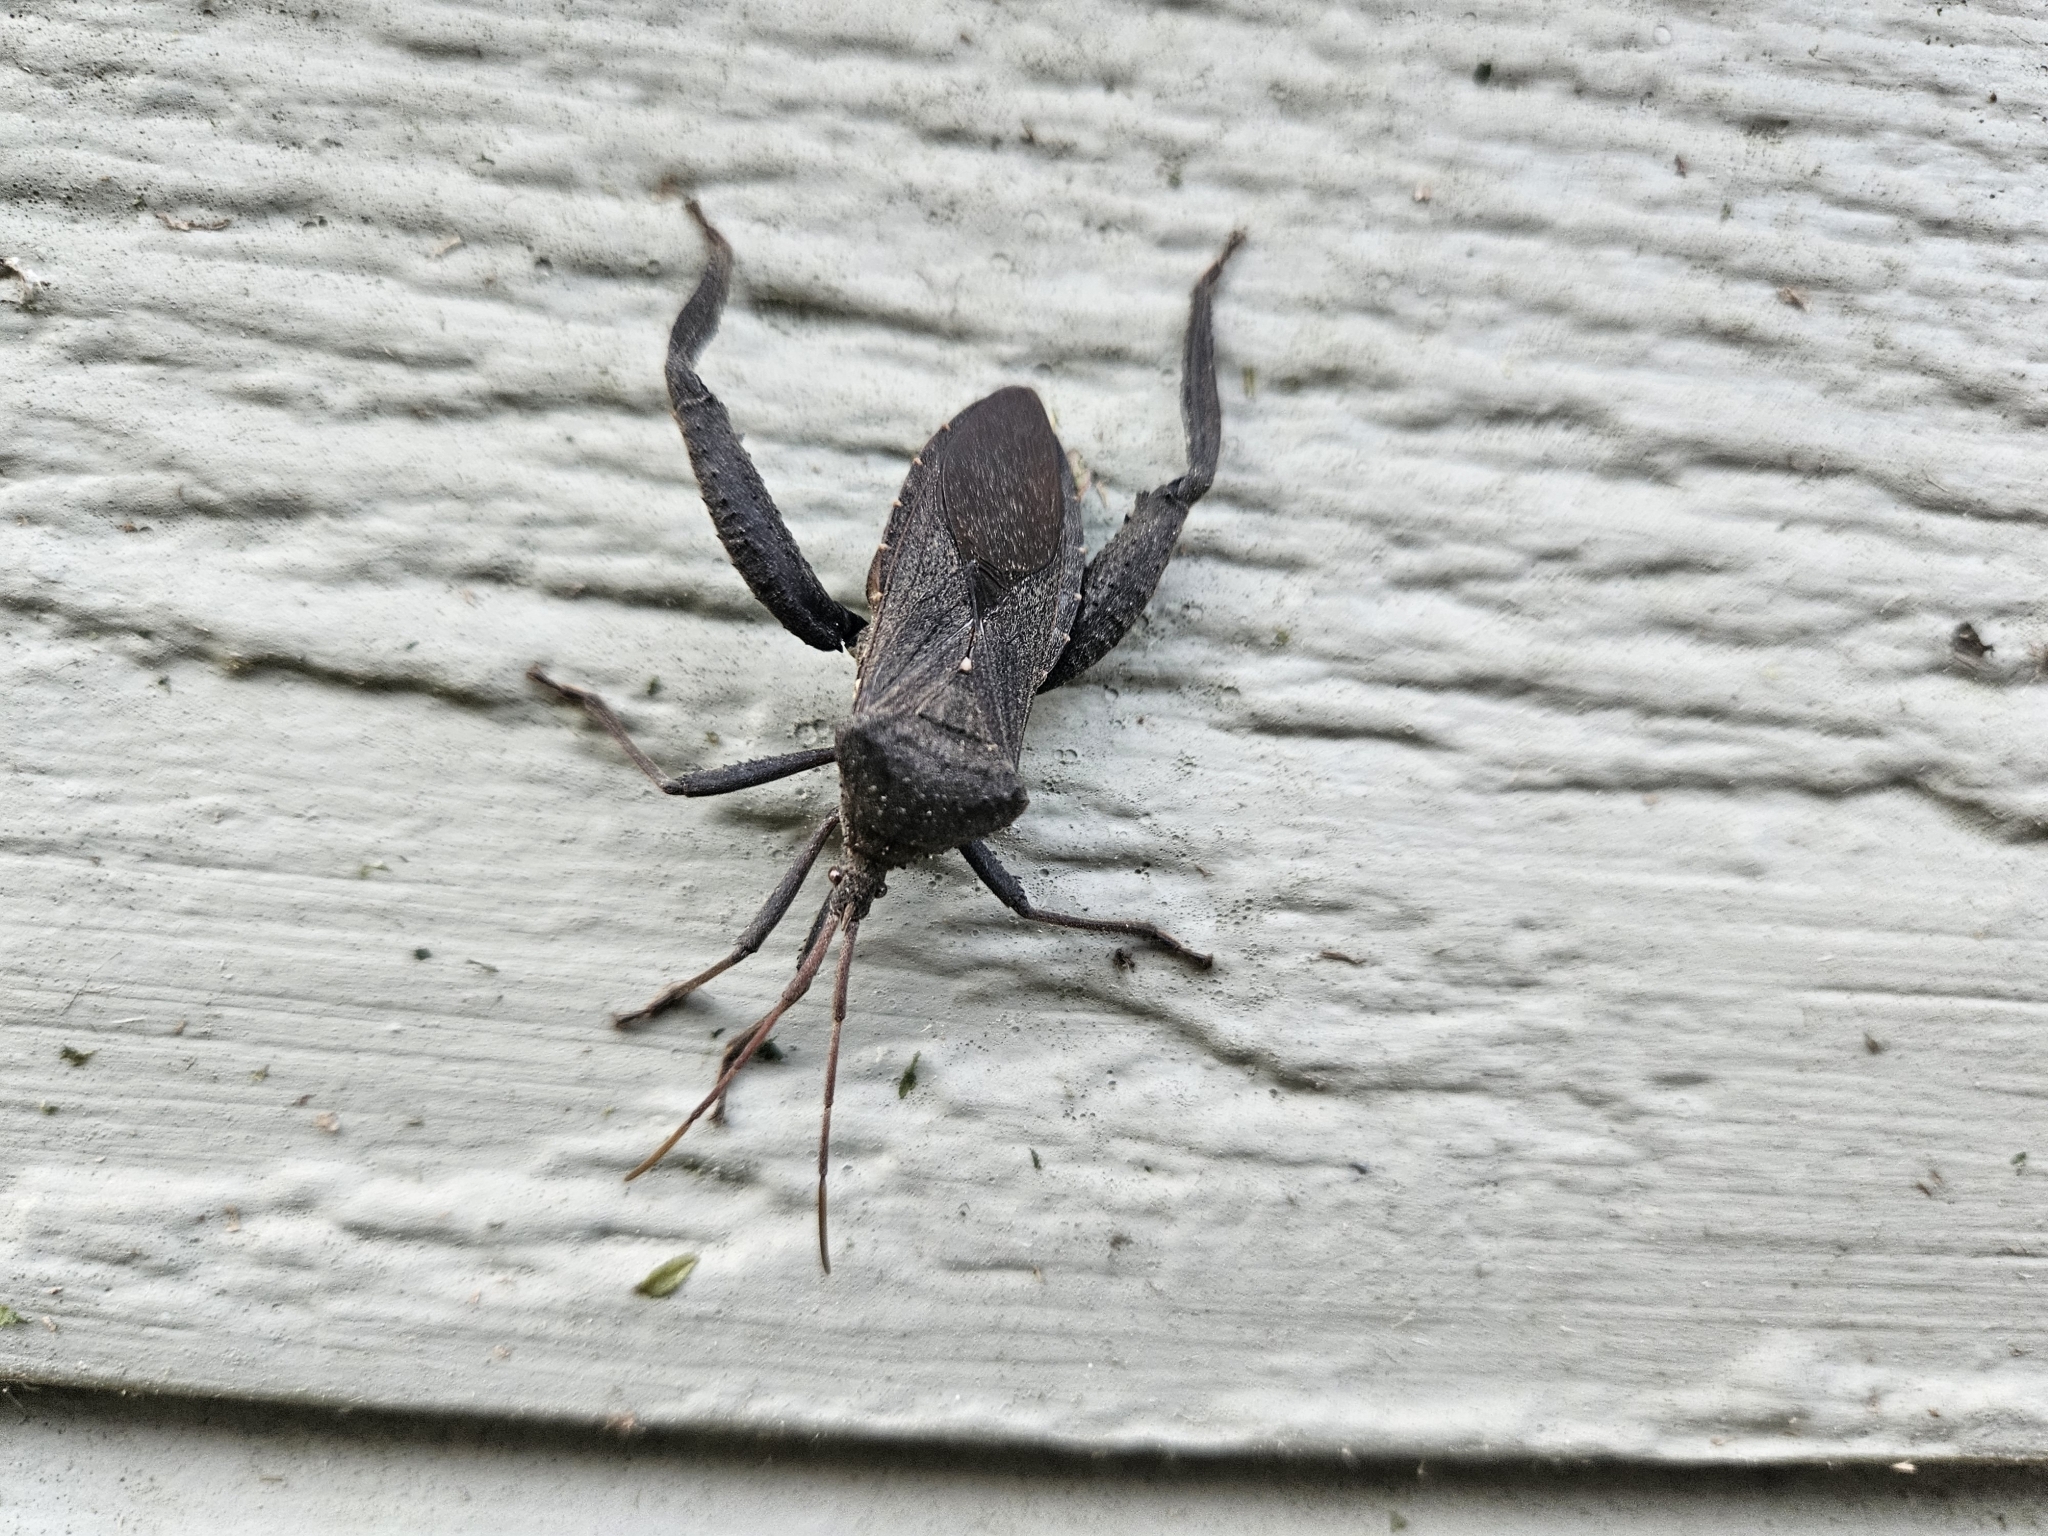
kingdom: Animalia
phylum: Arthropoda
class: Insecta
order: Hemiptera
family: Coreidae
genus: Acanthocephala
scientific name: Acanthocephala femorata
